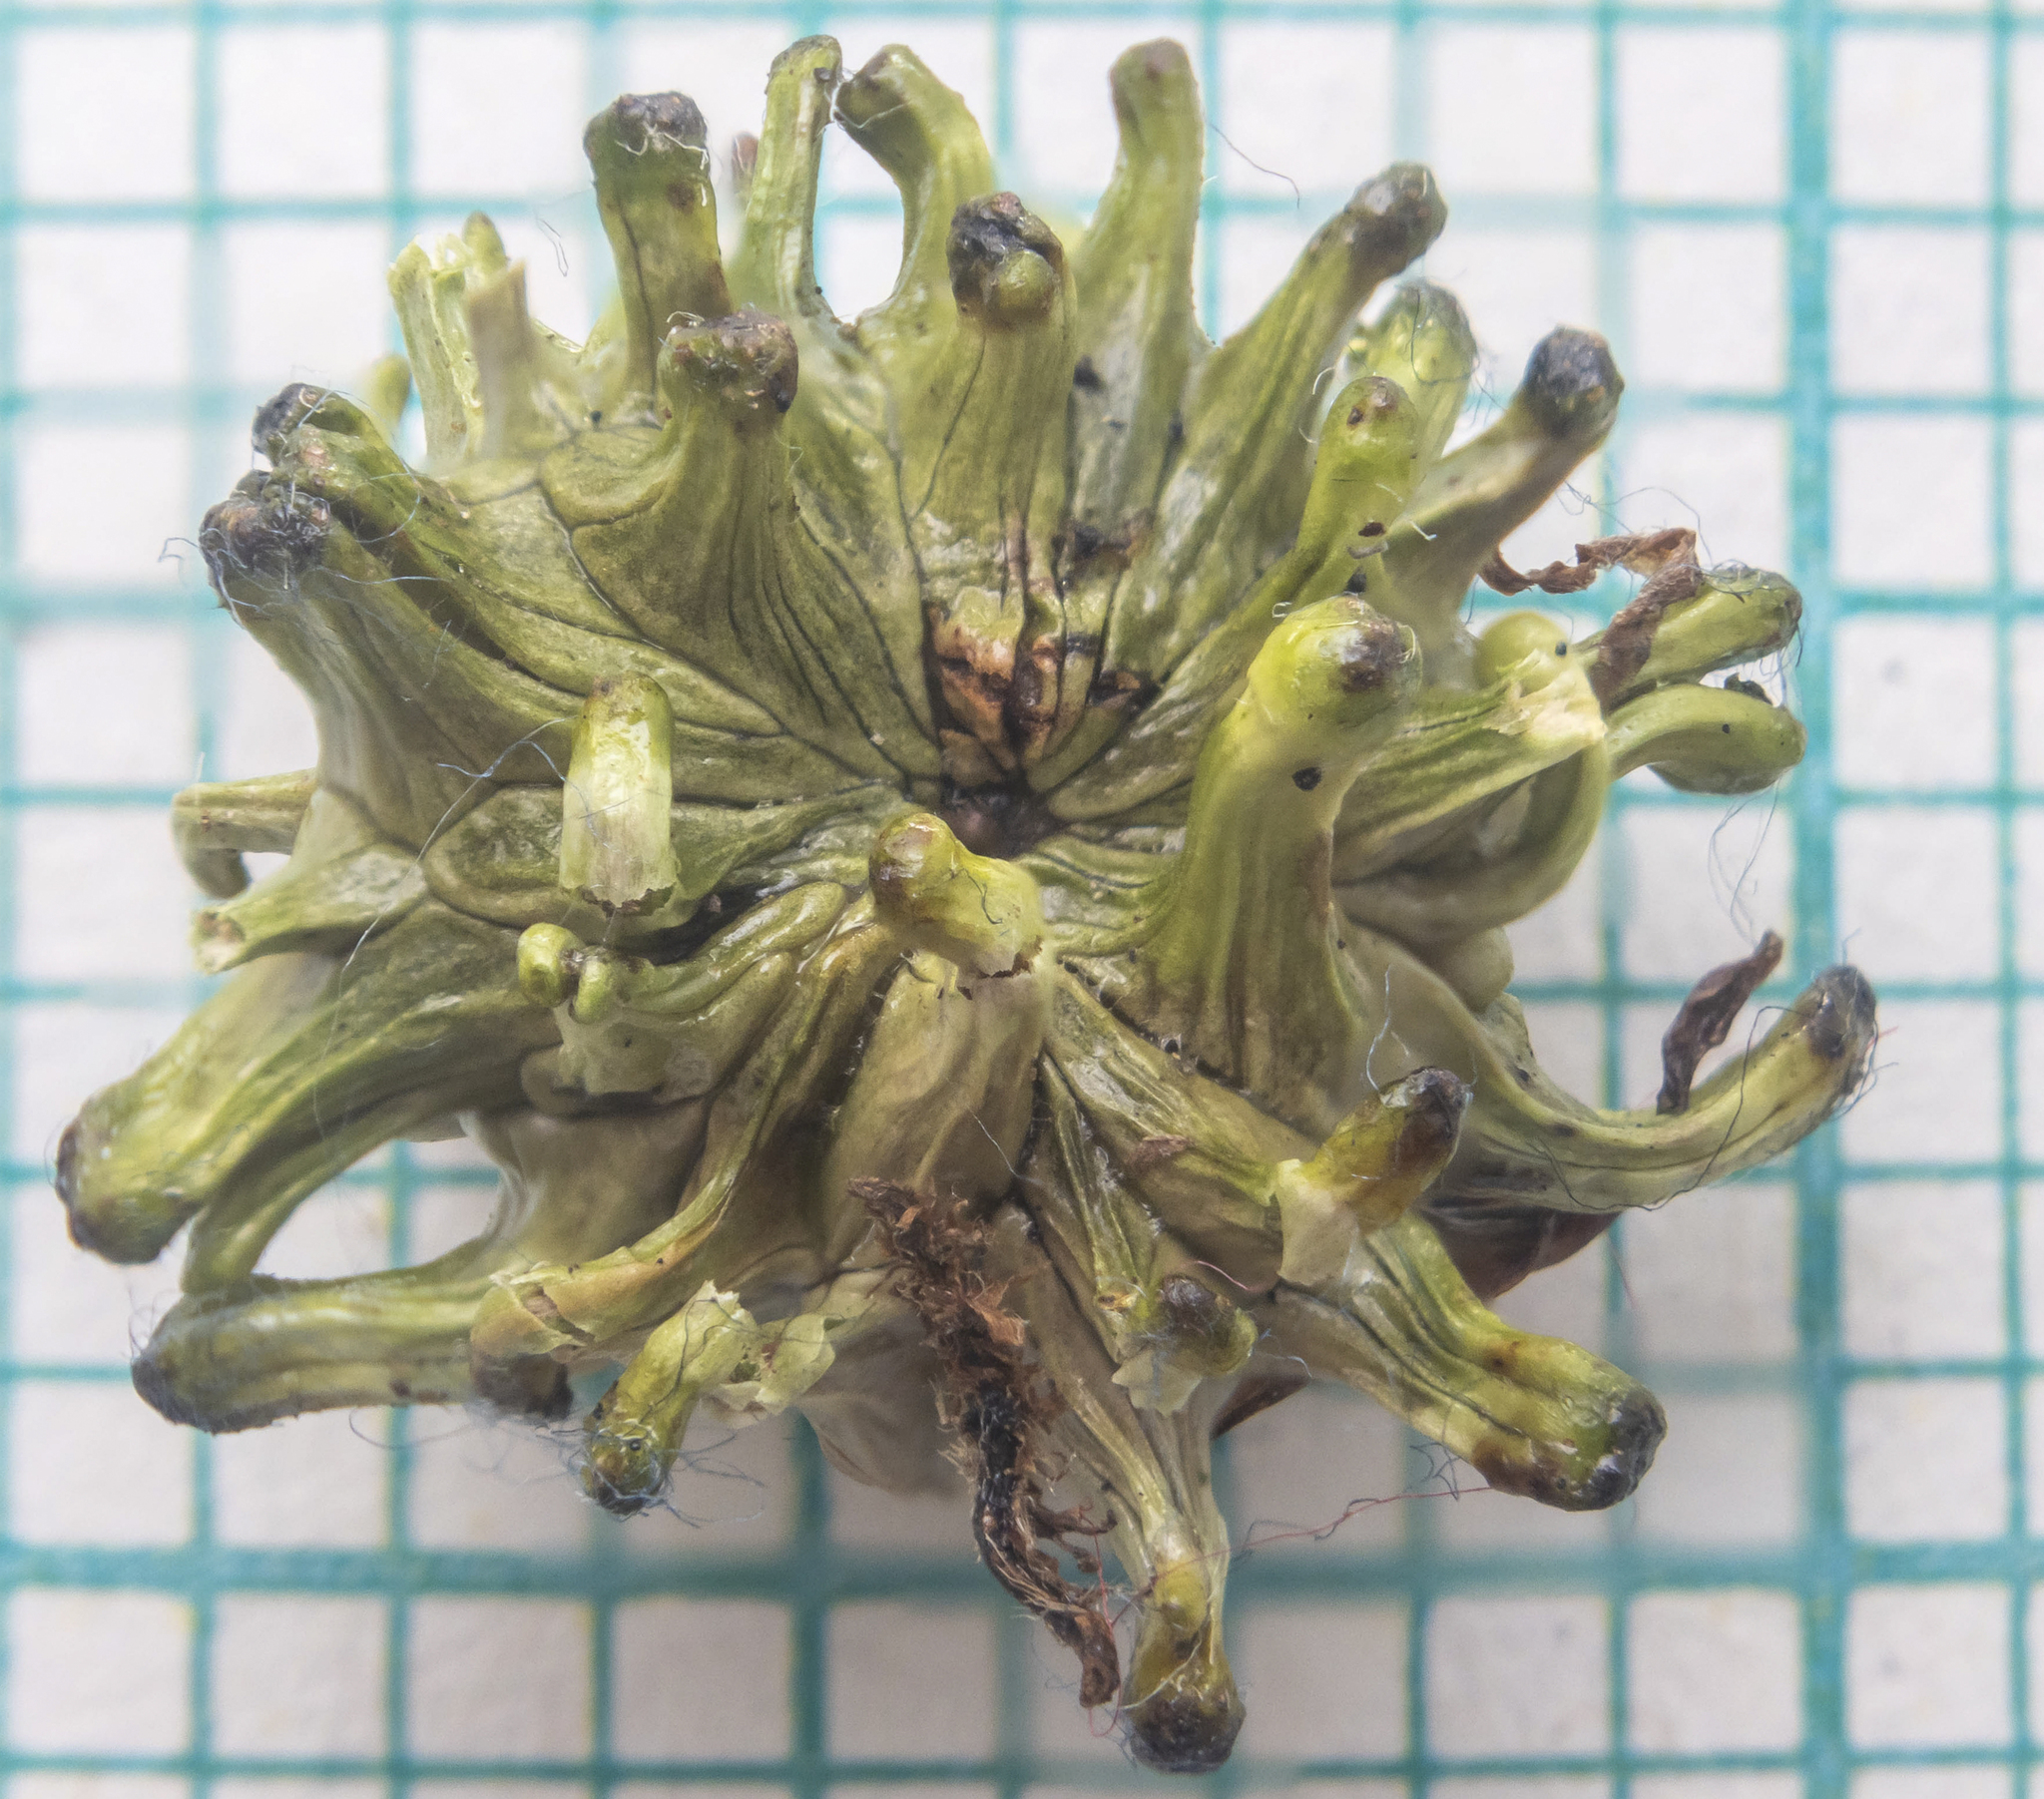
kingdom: Animalia
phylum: Arthropoda
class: Insecta
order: Hymenoptera
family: Cynipidae
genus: Andricus
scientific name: Andricus grossulariae
